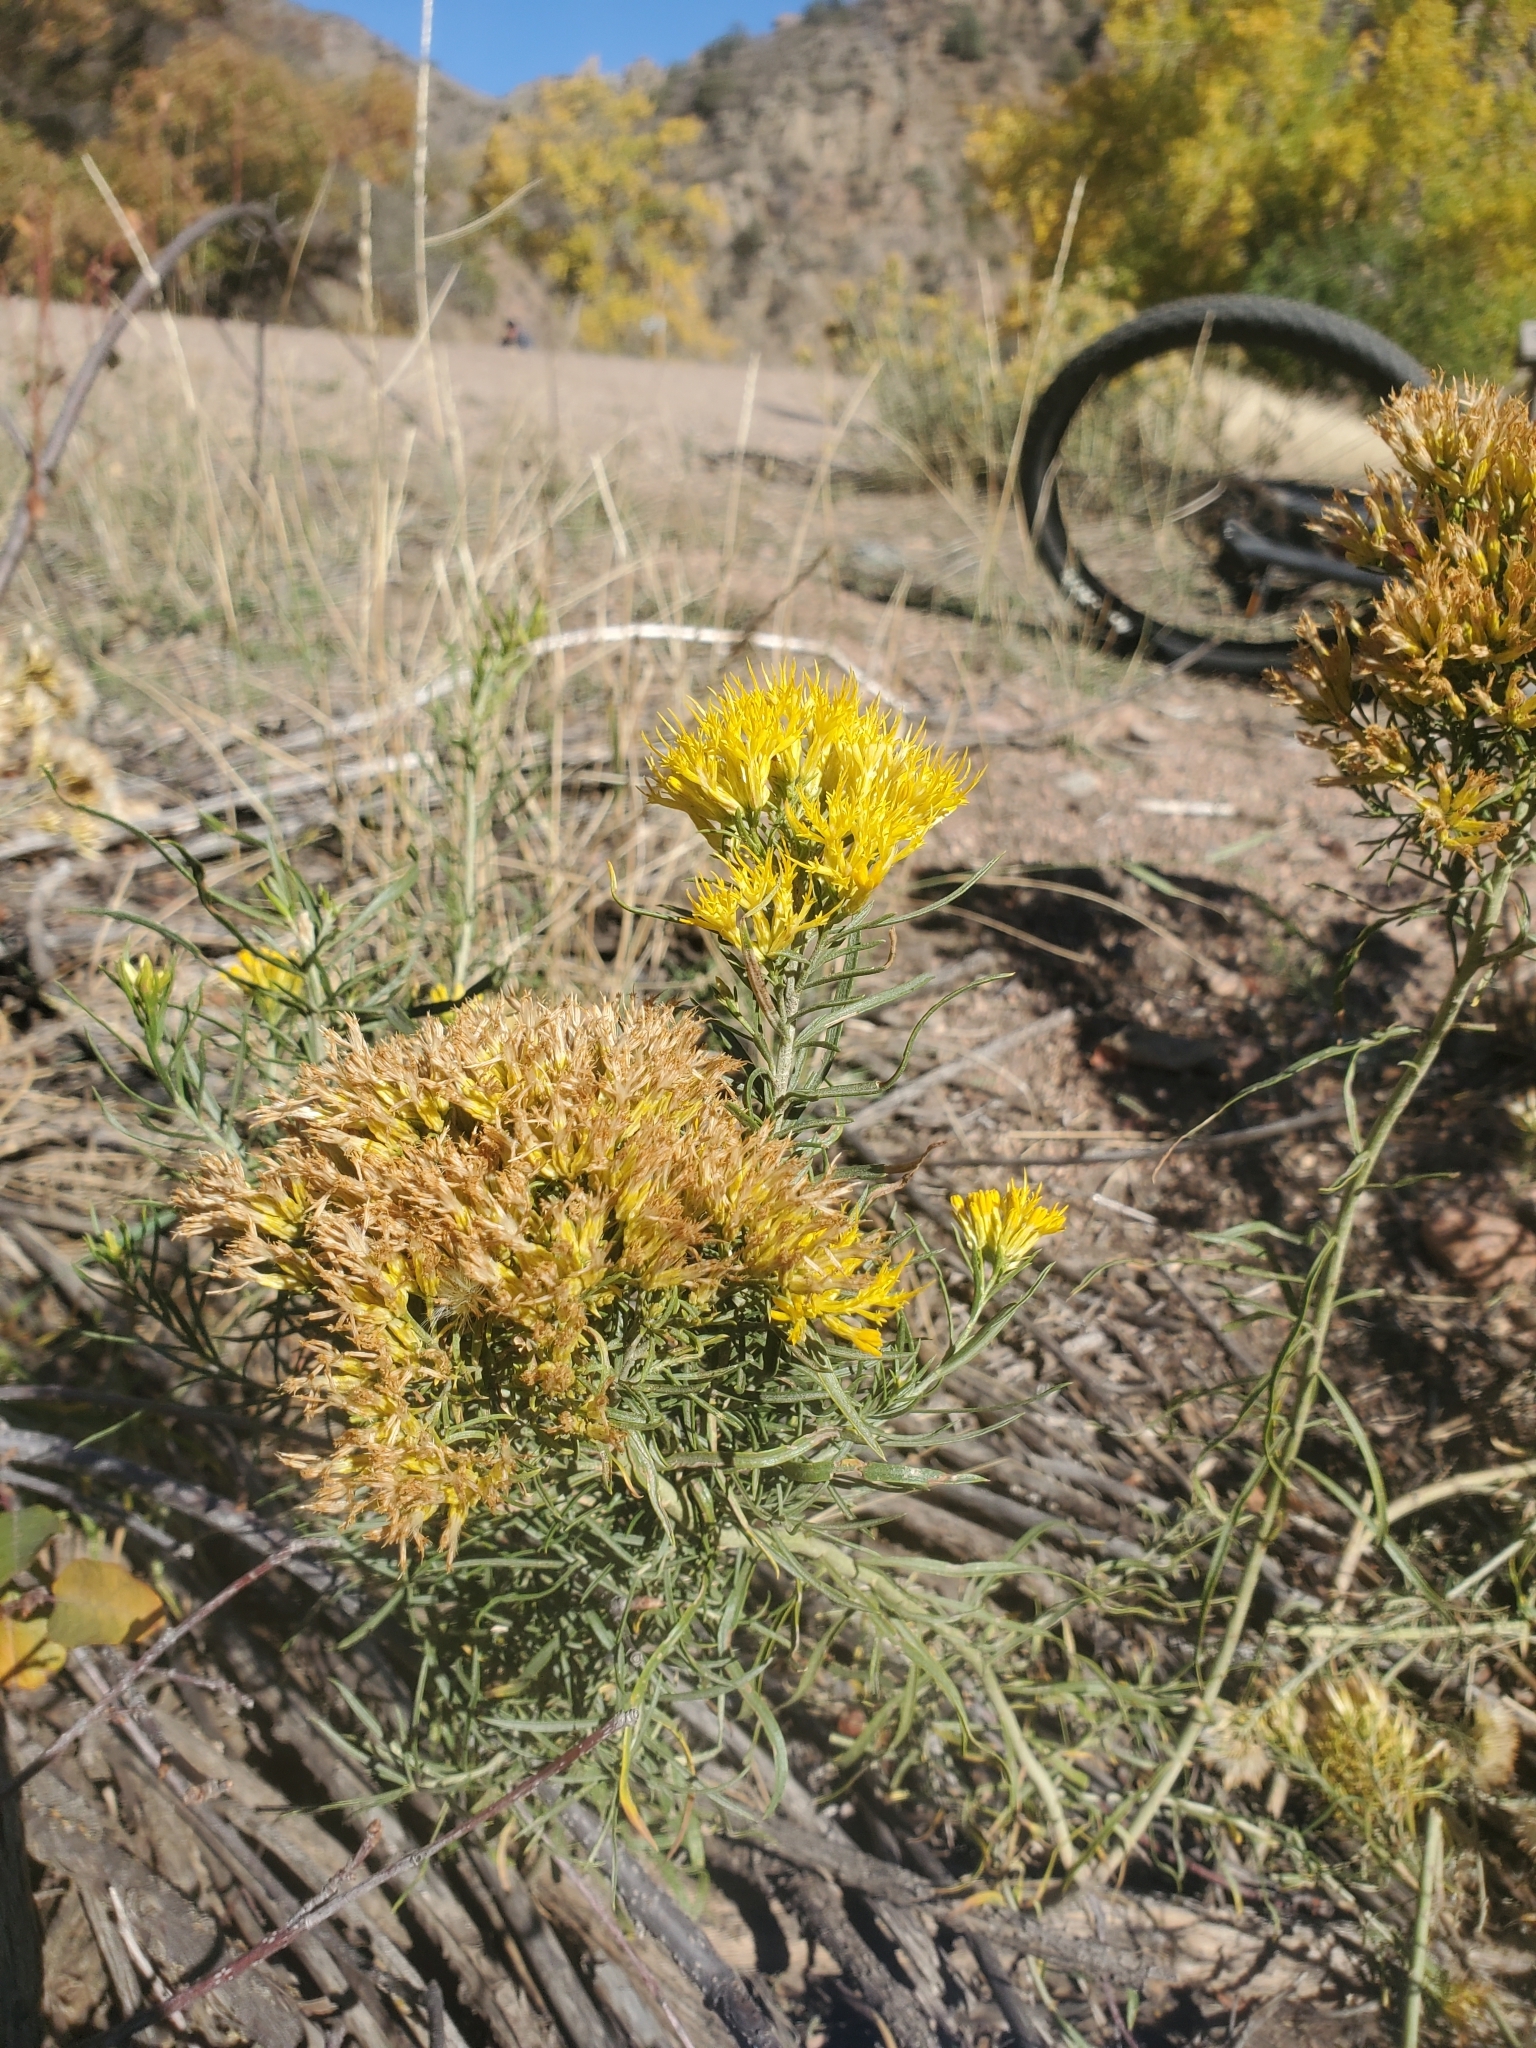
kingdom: Plantae
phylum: Tracheophyta
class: Magnoliopsida
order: Asterales
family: Asteraceae
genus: Ericameria
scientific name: Ericameria nauseosa
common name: Rubber rabbitbrush
